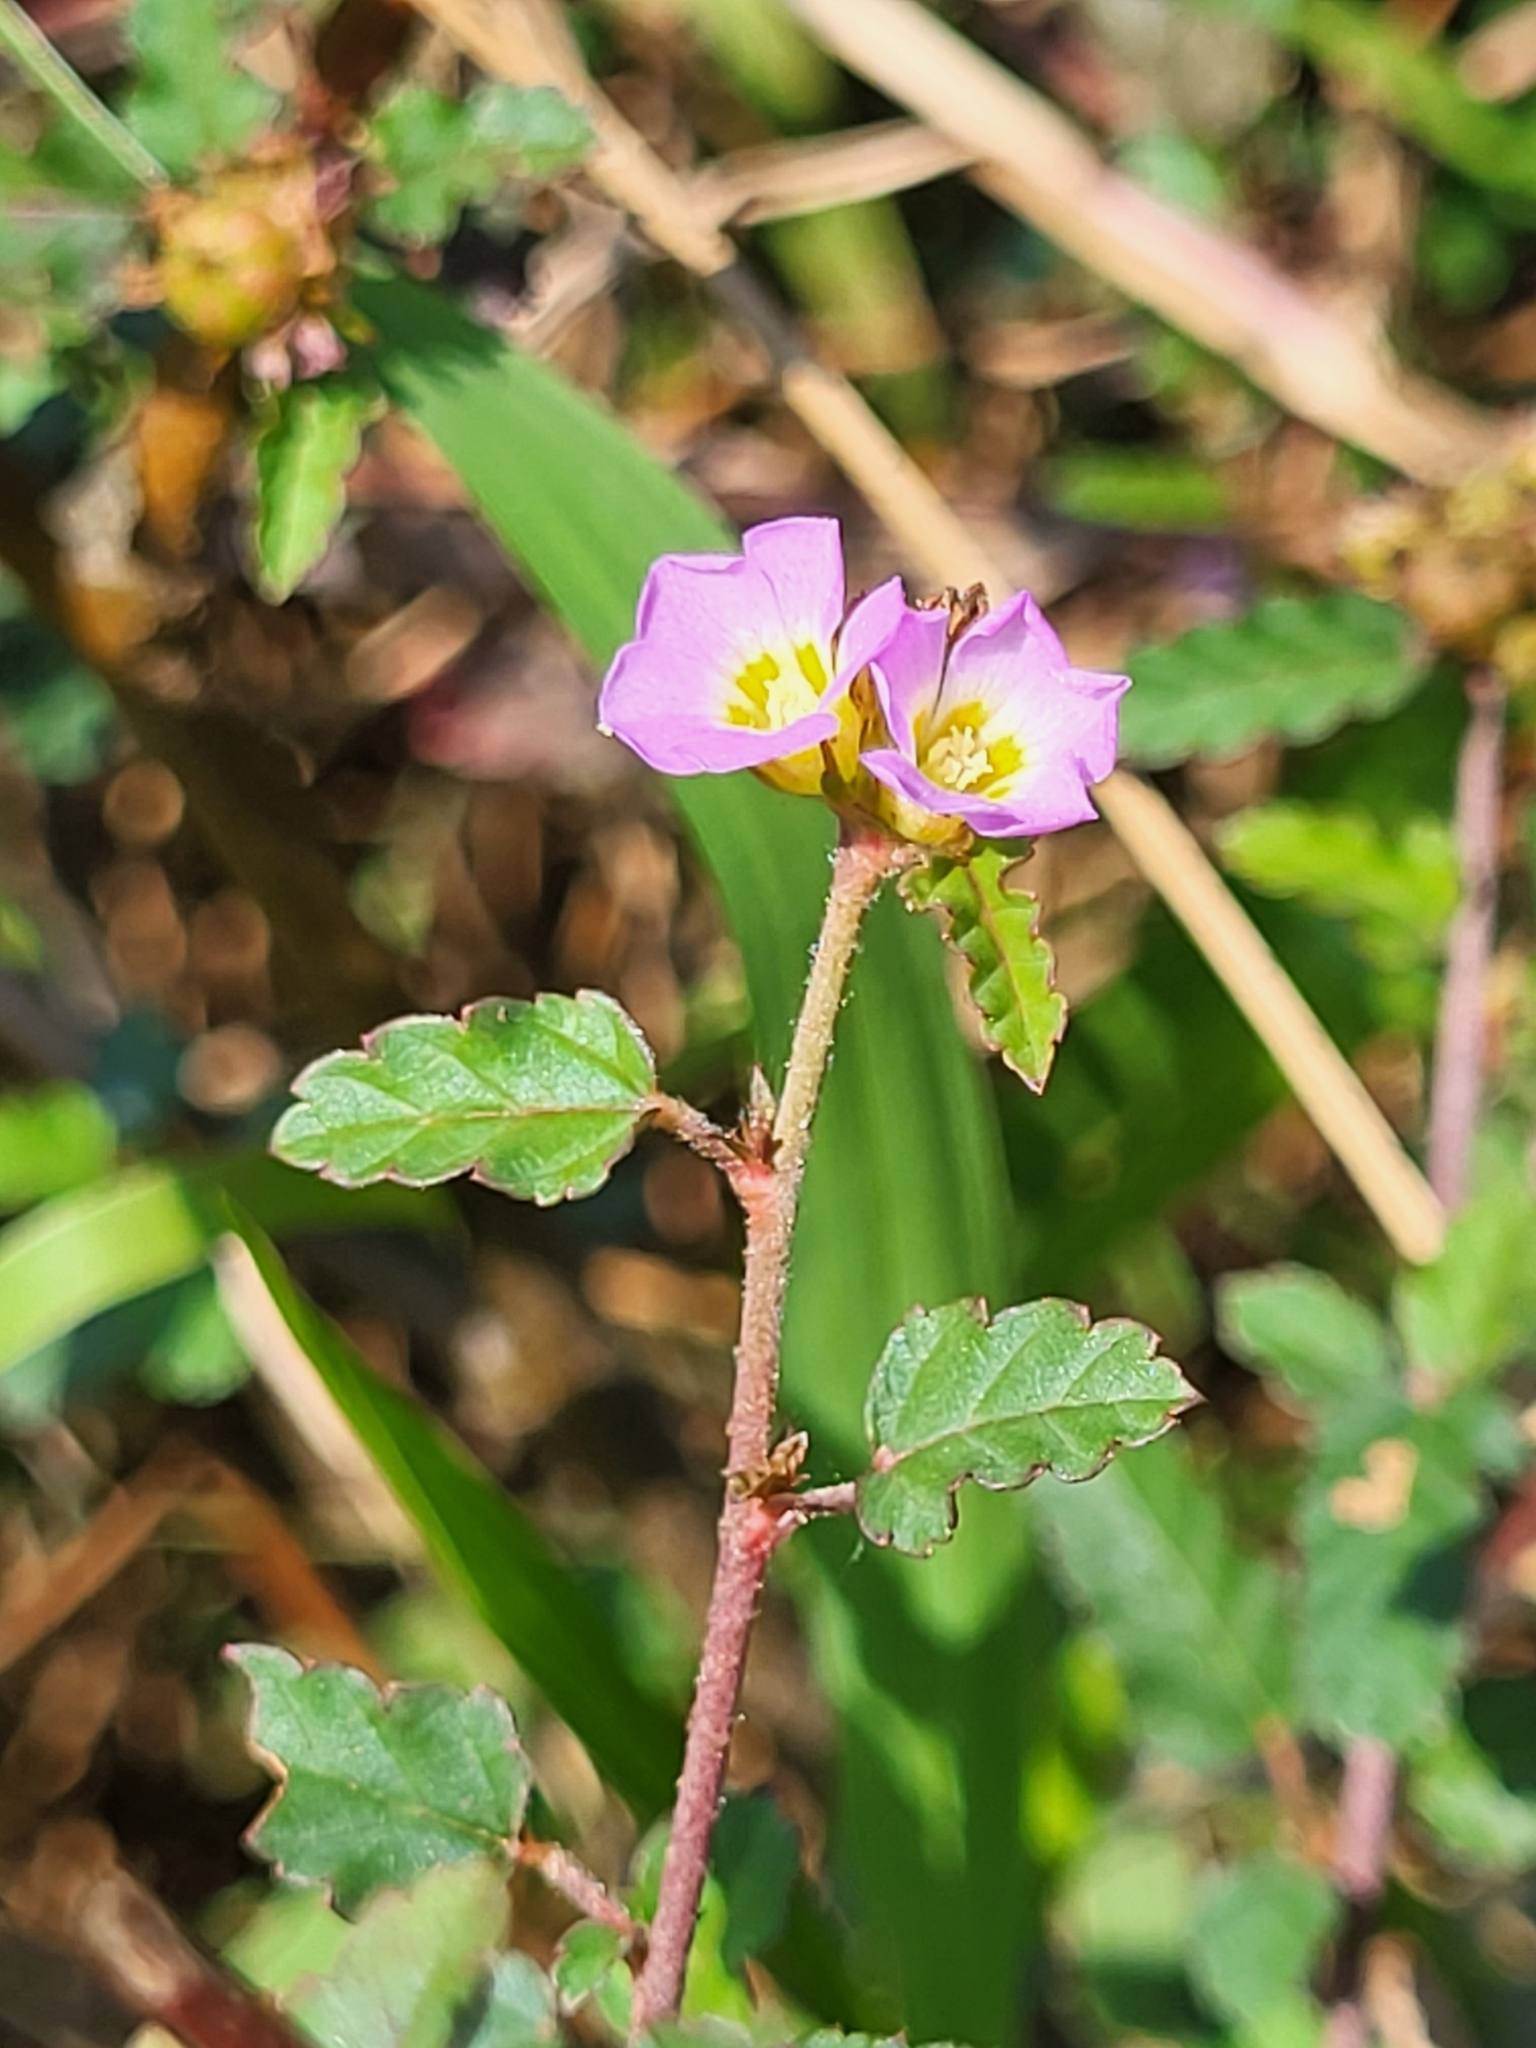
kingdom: Plantae
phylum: Tracheophyta
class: Magnoliopsida
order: Malvales
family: Malvaceae
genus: Melochia
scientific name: Melochia corchorifolia
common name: Chocolateweed
